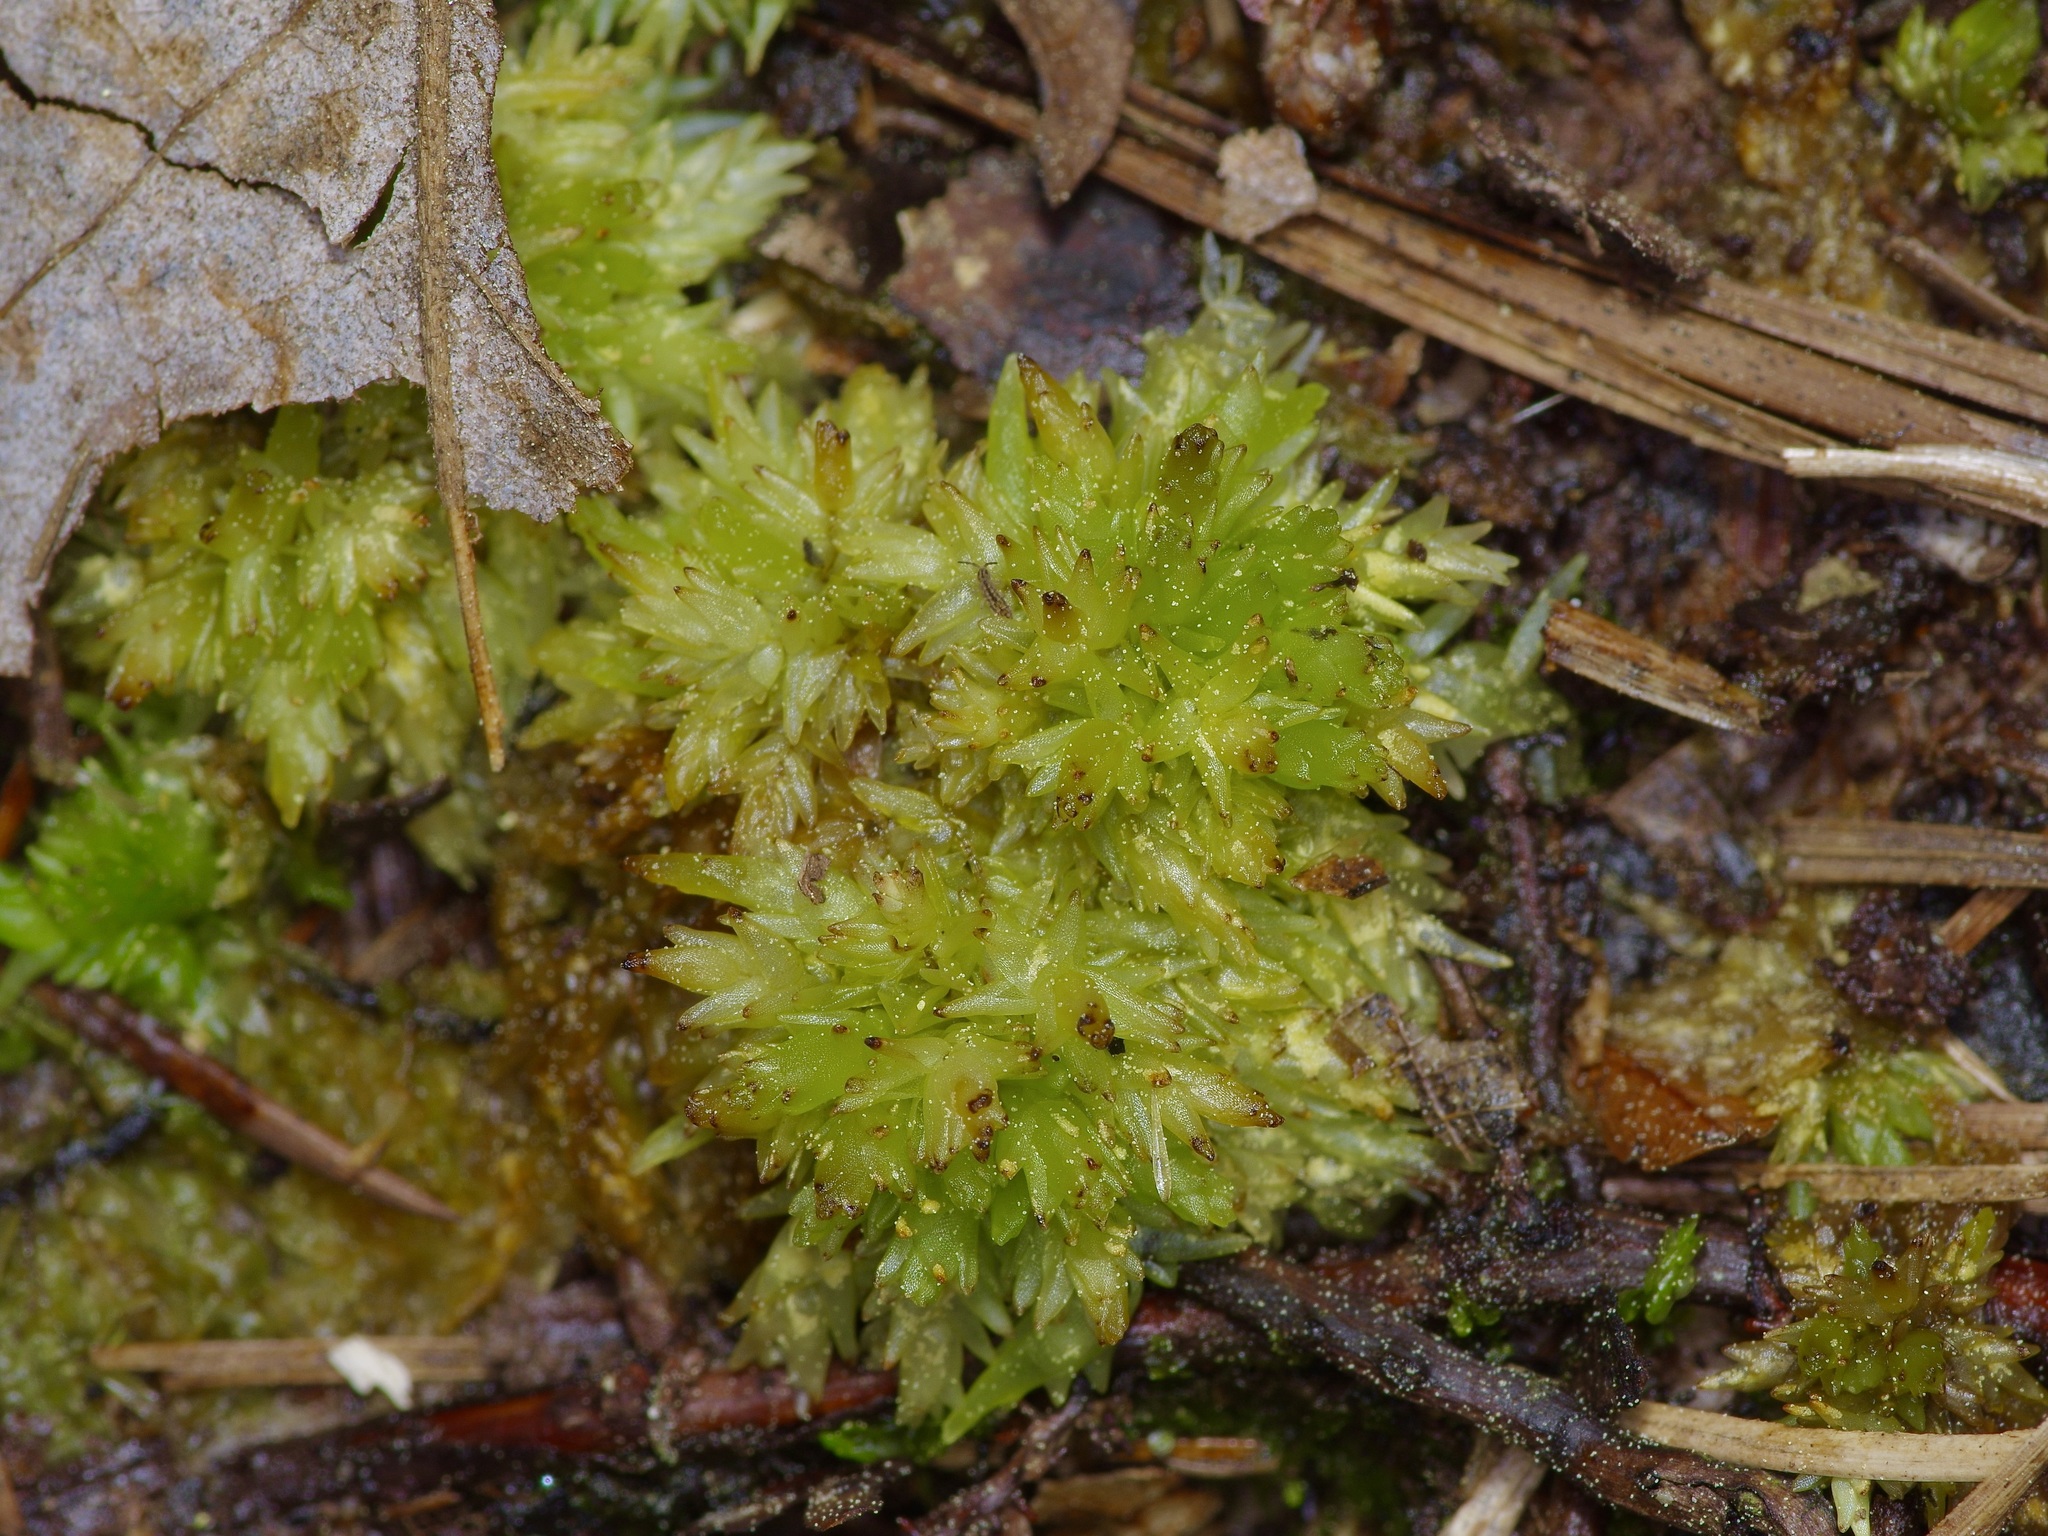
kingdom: Plantae
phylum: Bryophyta
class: Sphagnopsida
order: Sphagnales
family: Sphagnaceae
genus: Sphagnum
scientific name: Sphagnum perichaetiale
